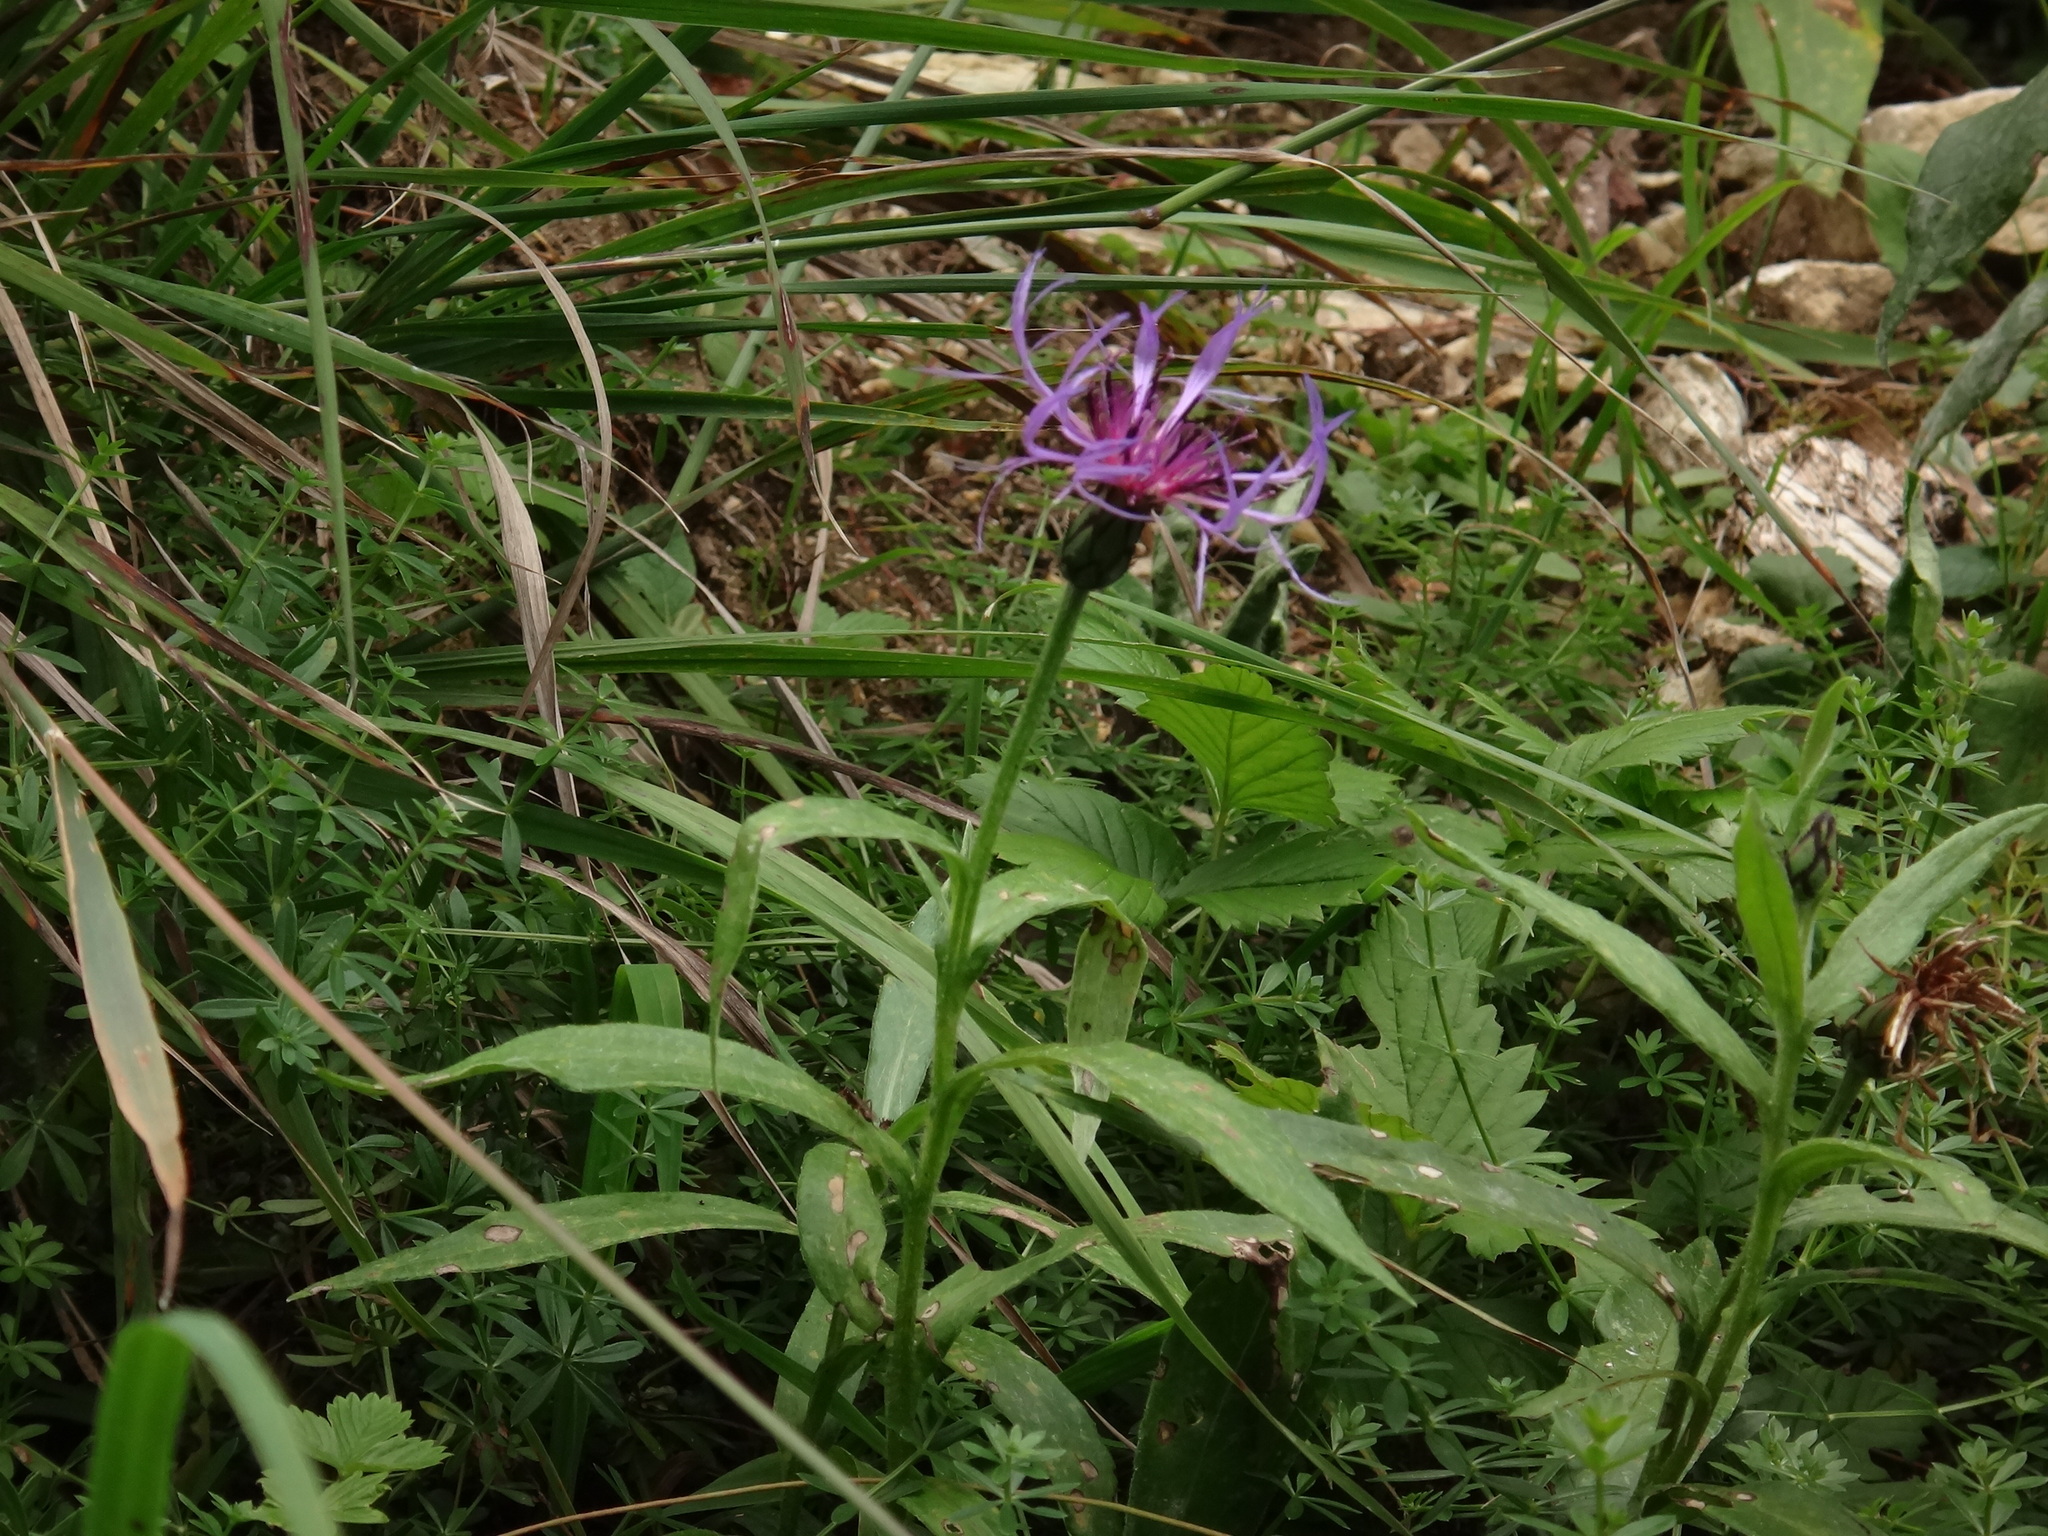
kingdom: Plantae
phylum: Tracheophyta
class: Magnoliopsida
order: Asterales
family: Asteraceae
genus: Centaurea
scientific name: Centaurea montana
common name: Perennial cornflower
